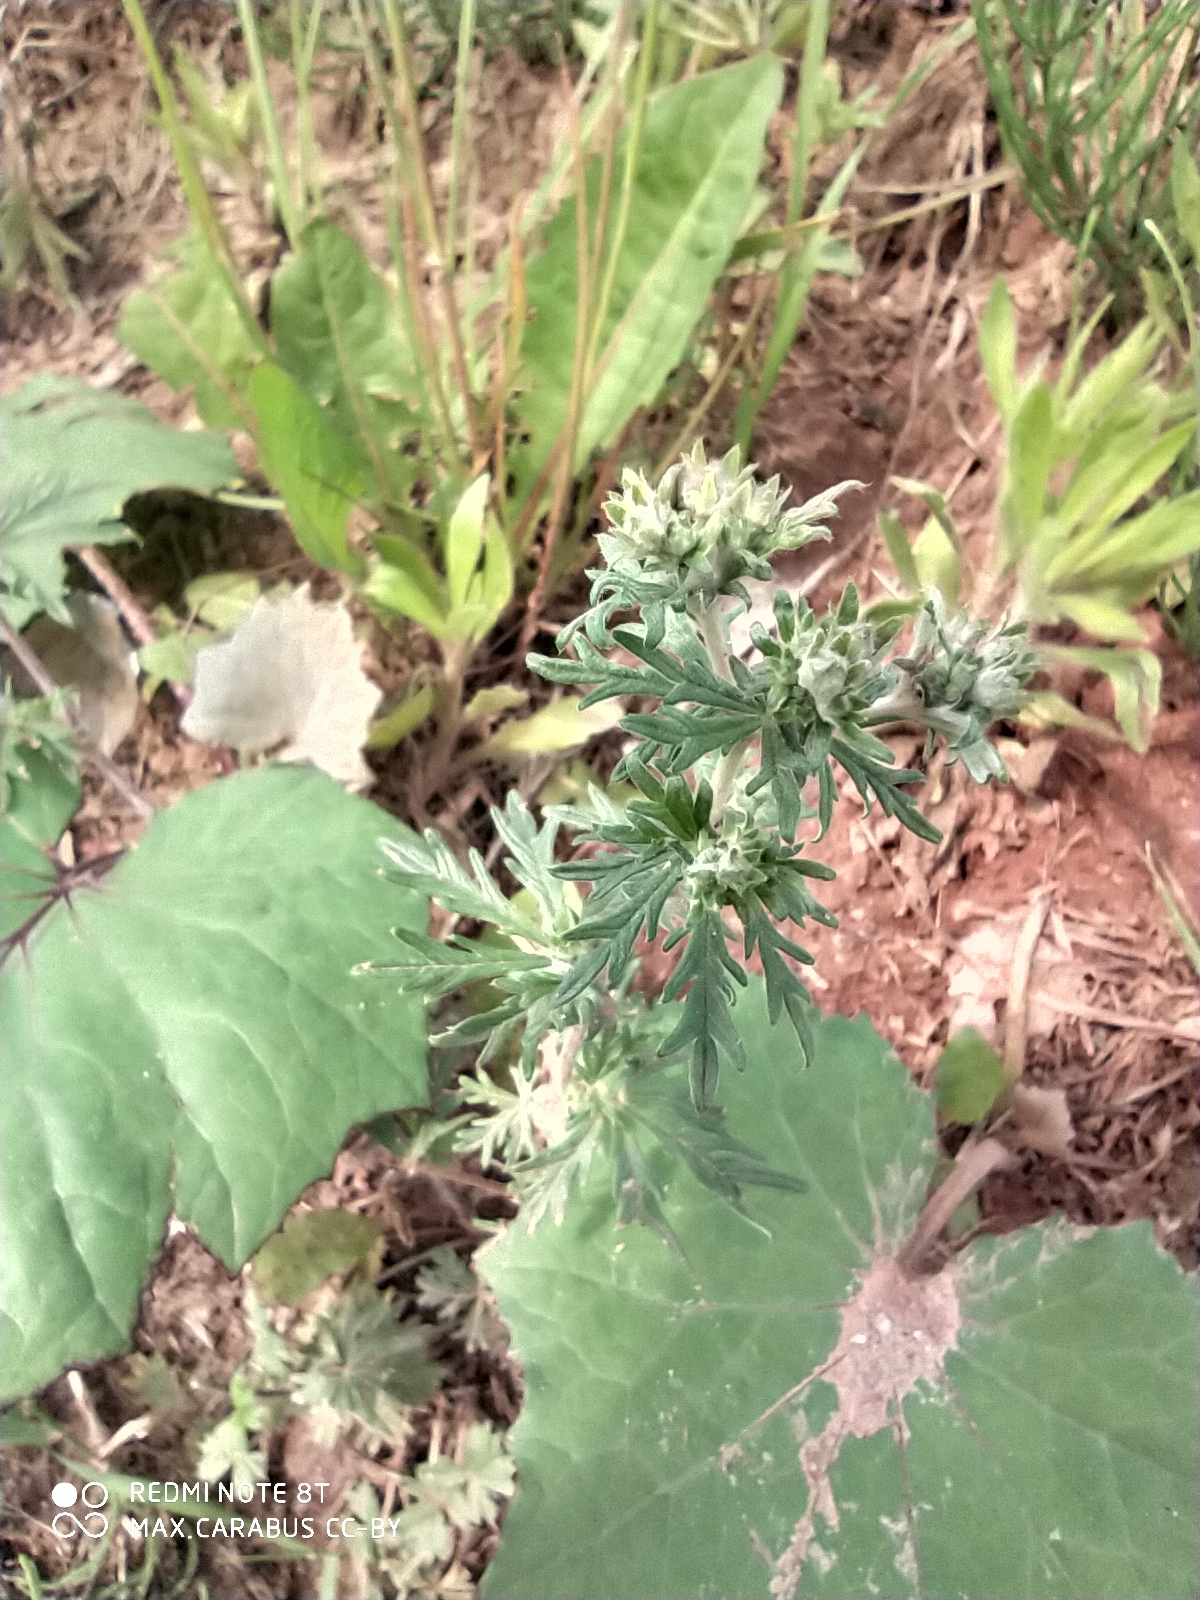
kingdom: Plantae
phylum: Tracheophyta
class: Magnoliopsida
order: Rosales
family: Rosaceae
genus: Potentilla
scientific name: Potentilla argentea
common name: Hoary cinquefoil
